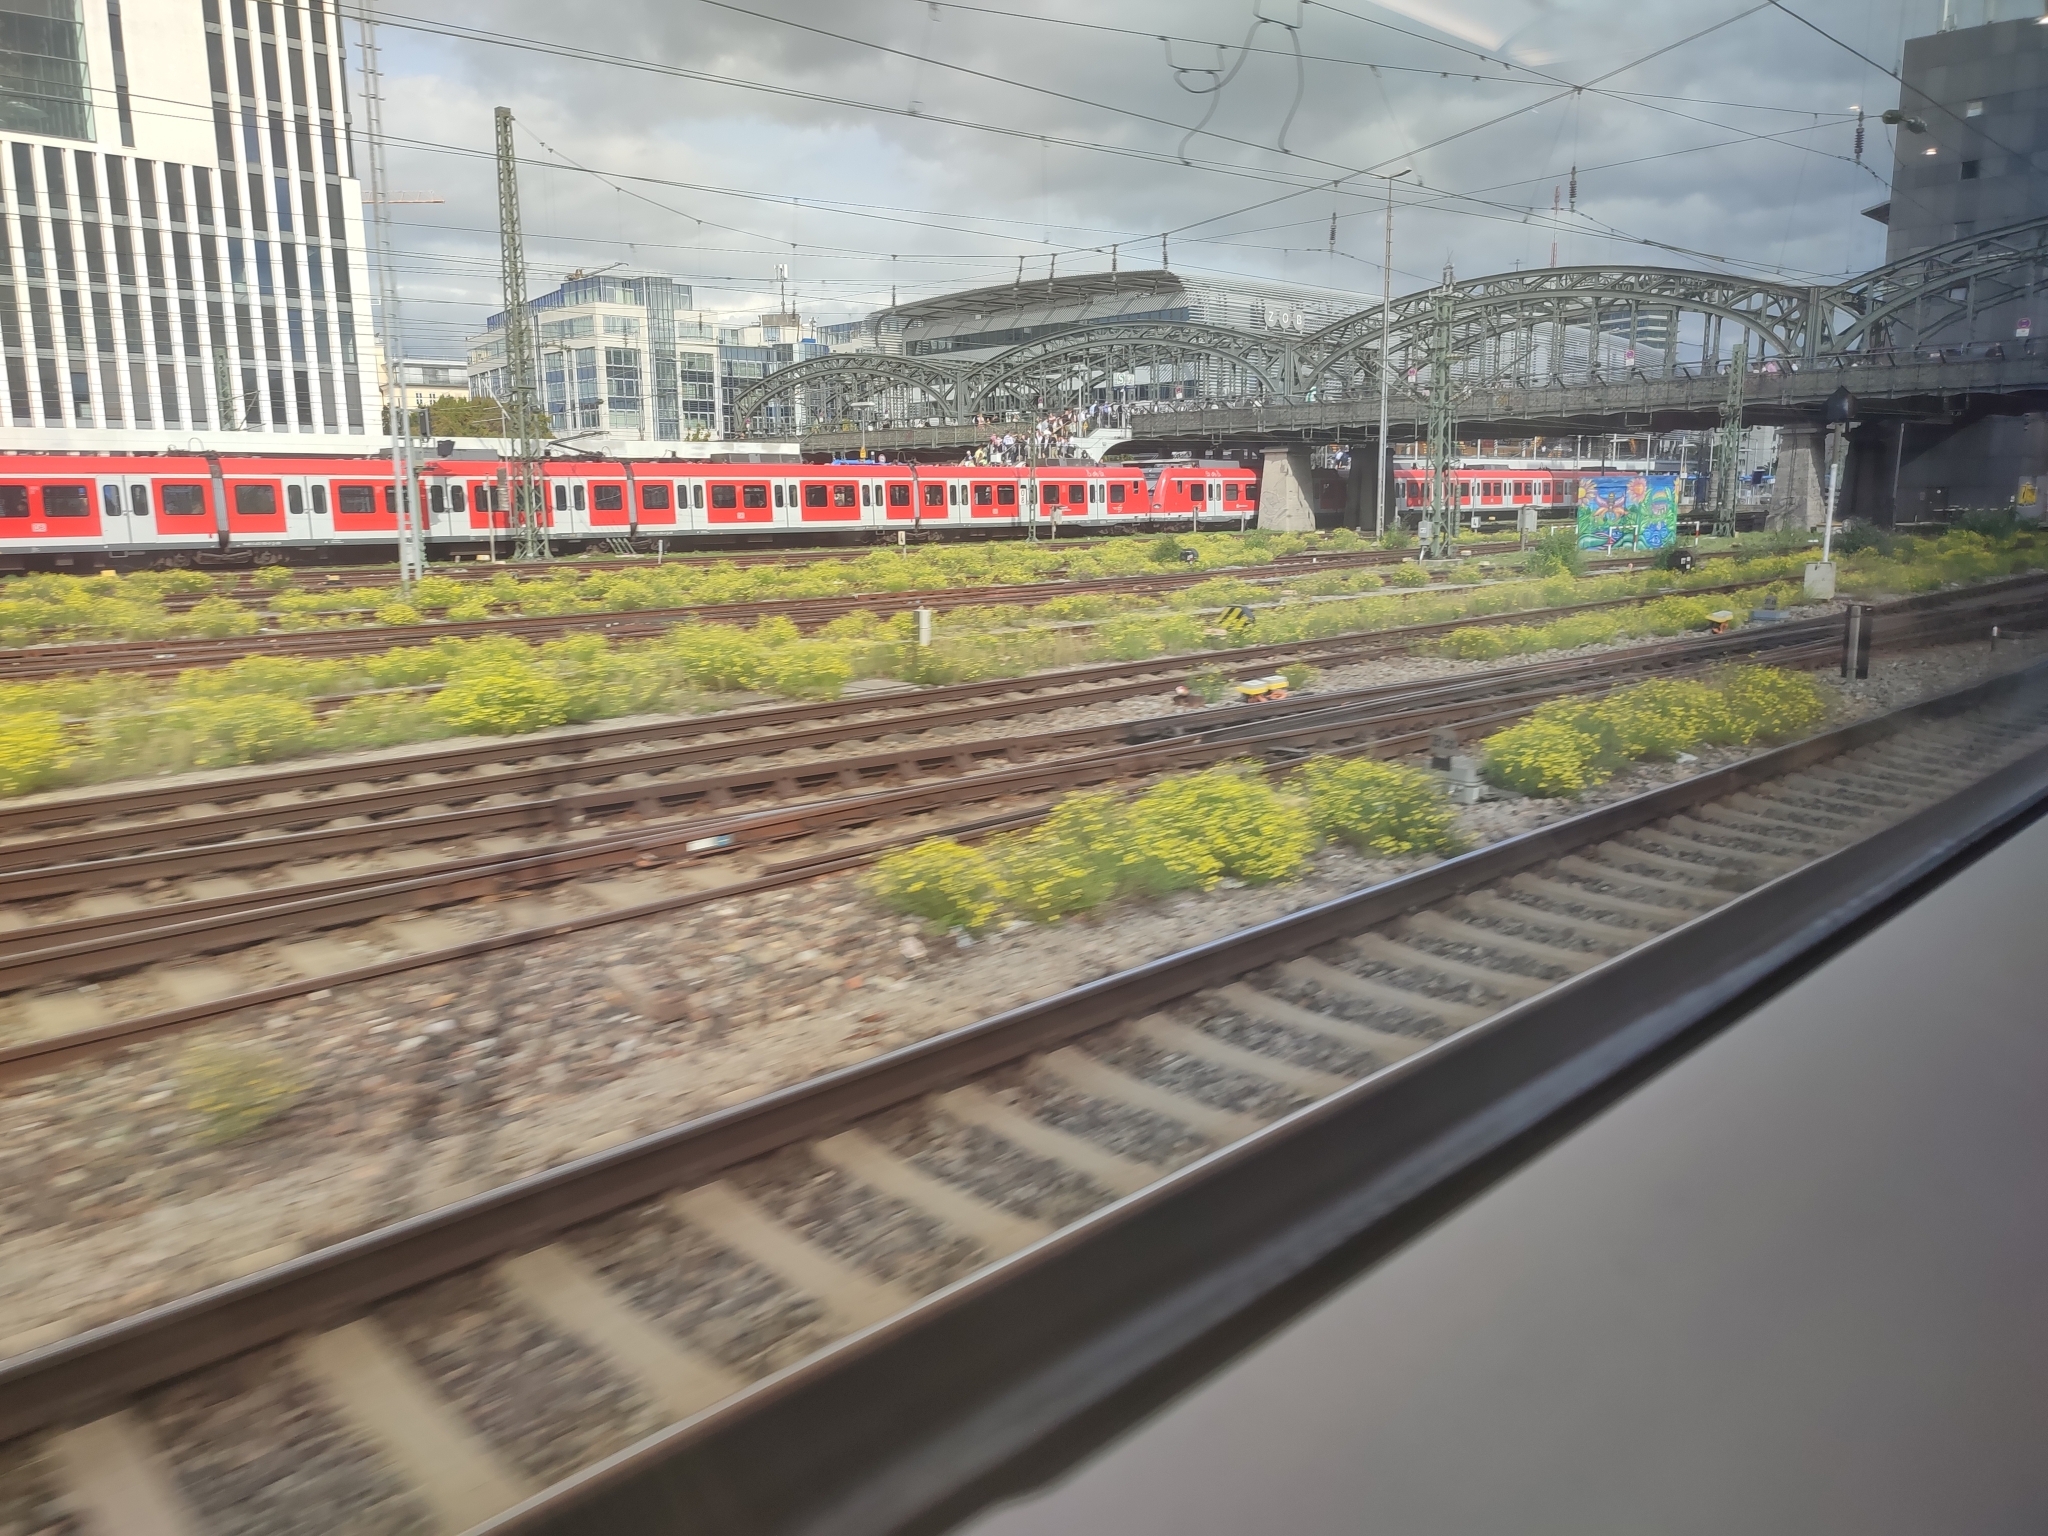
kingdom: Plantae
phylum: Tracheophyta
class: Magnoliopsida
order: Asterales
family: Asteraceae
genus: Senecio
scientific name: Senecio inaequidens
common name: Narrow-leaved ragwort
